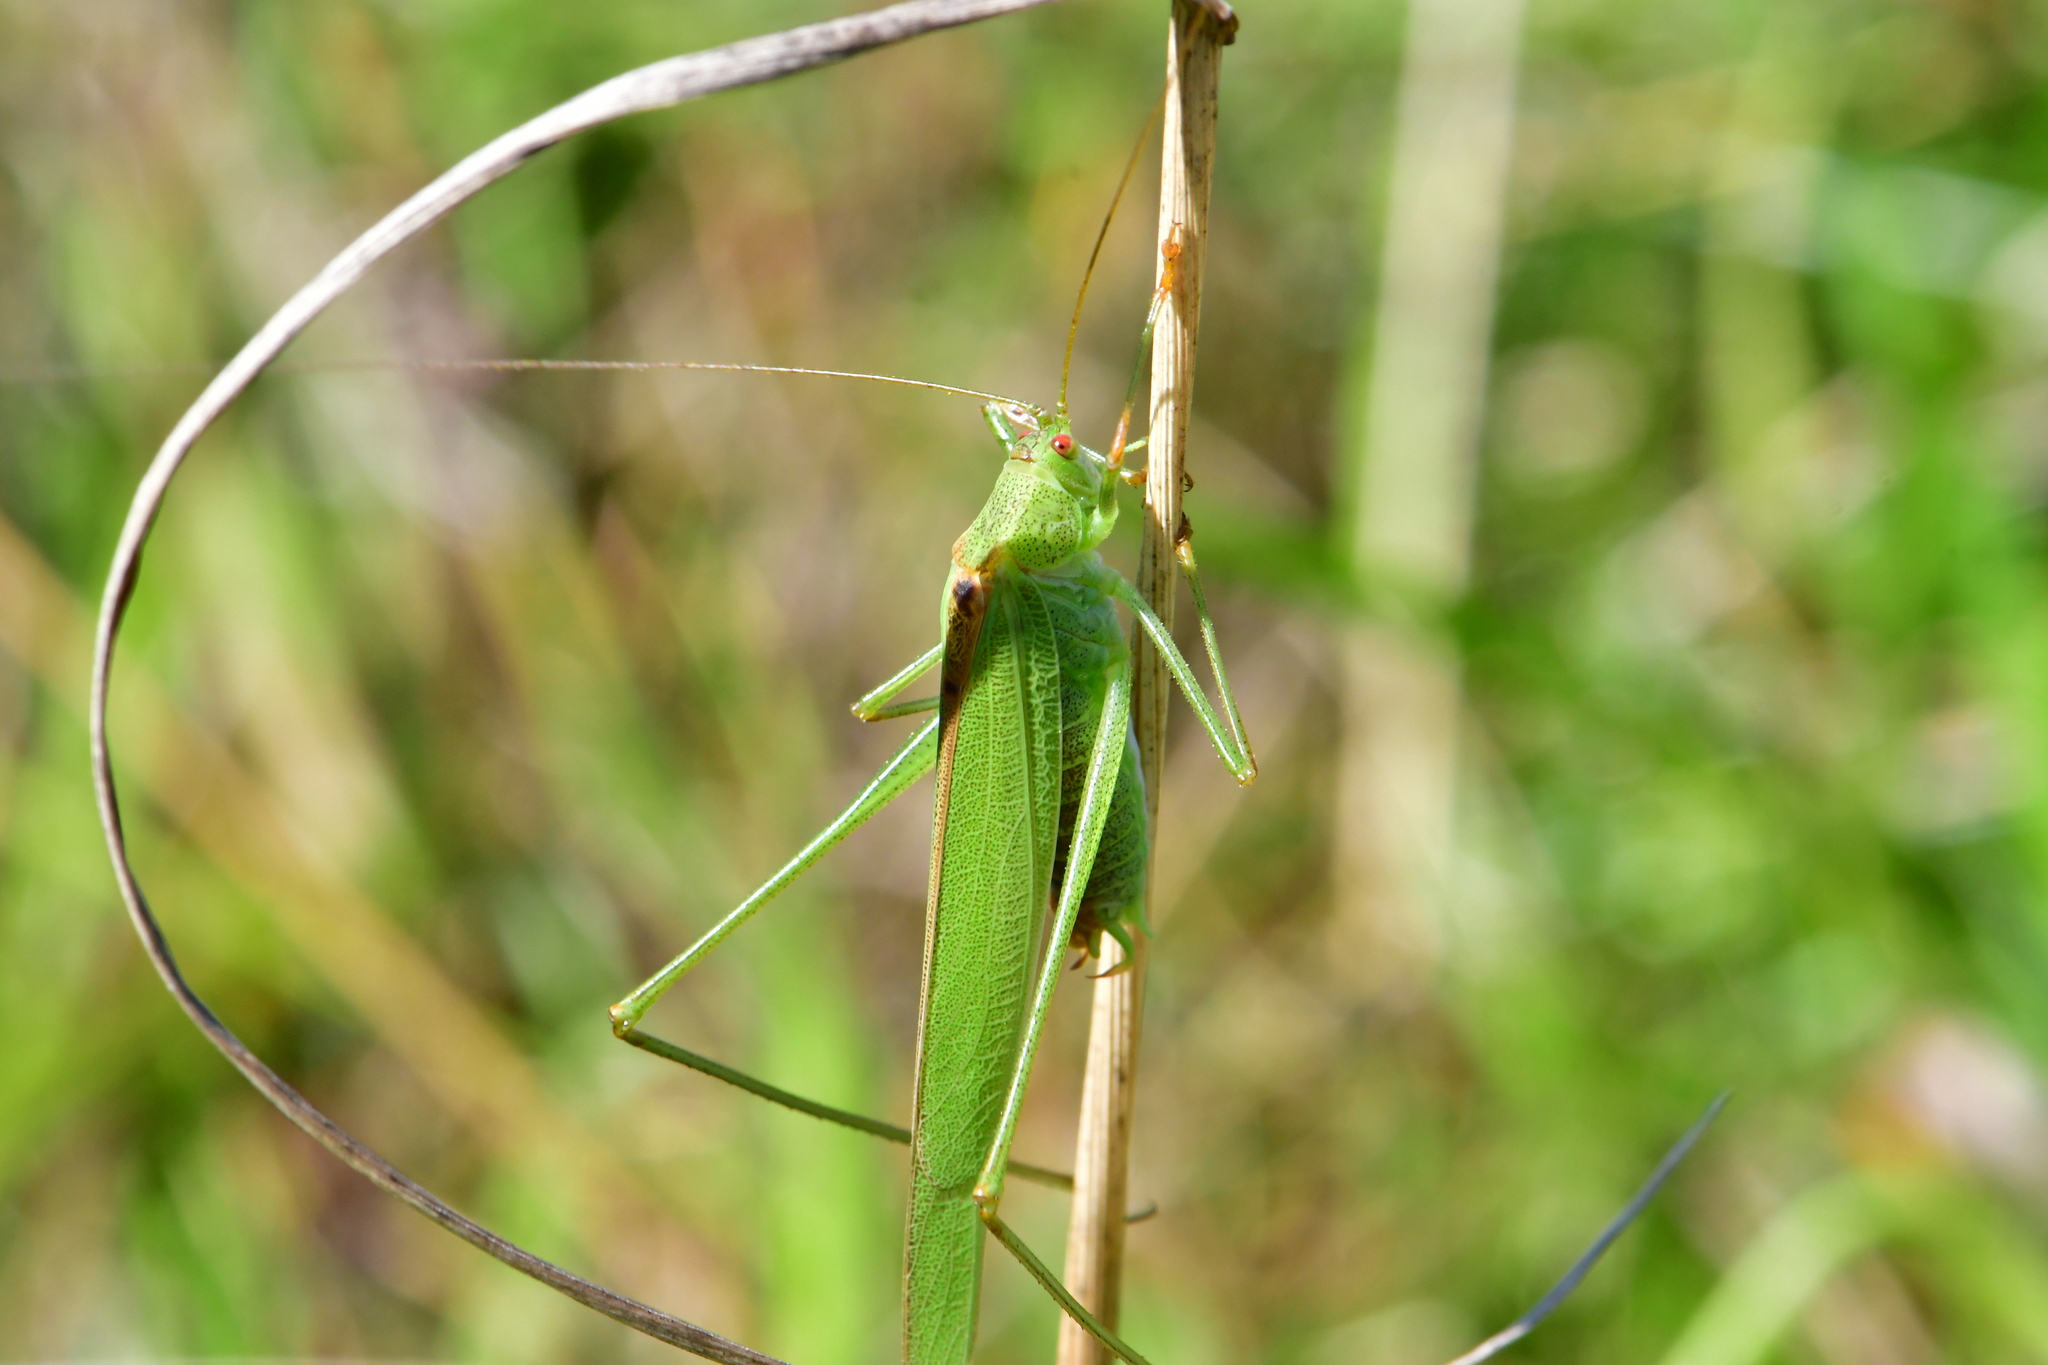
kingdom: Animalia
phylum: Arthropoda
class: Insecta
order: Orthoptera
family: Tettigoniidae
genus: Phaneroptera
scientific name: Phaneroptera falcata
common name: Sickle-bearing bush-cricket
